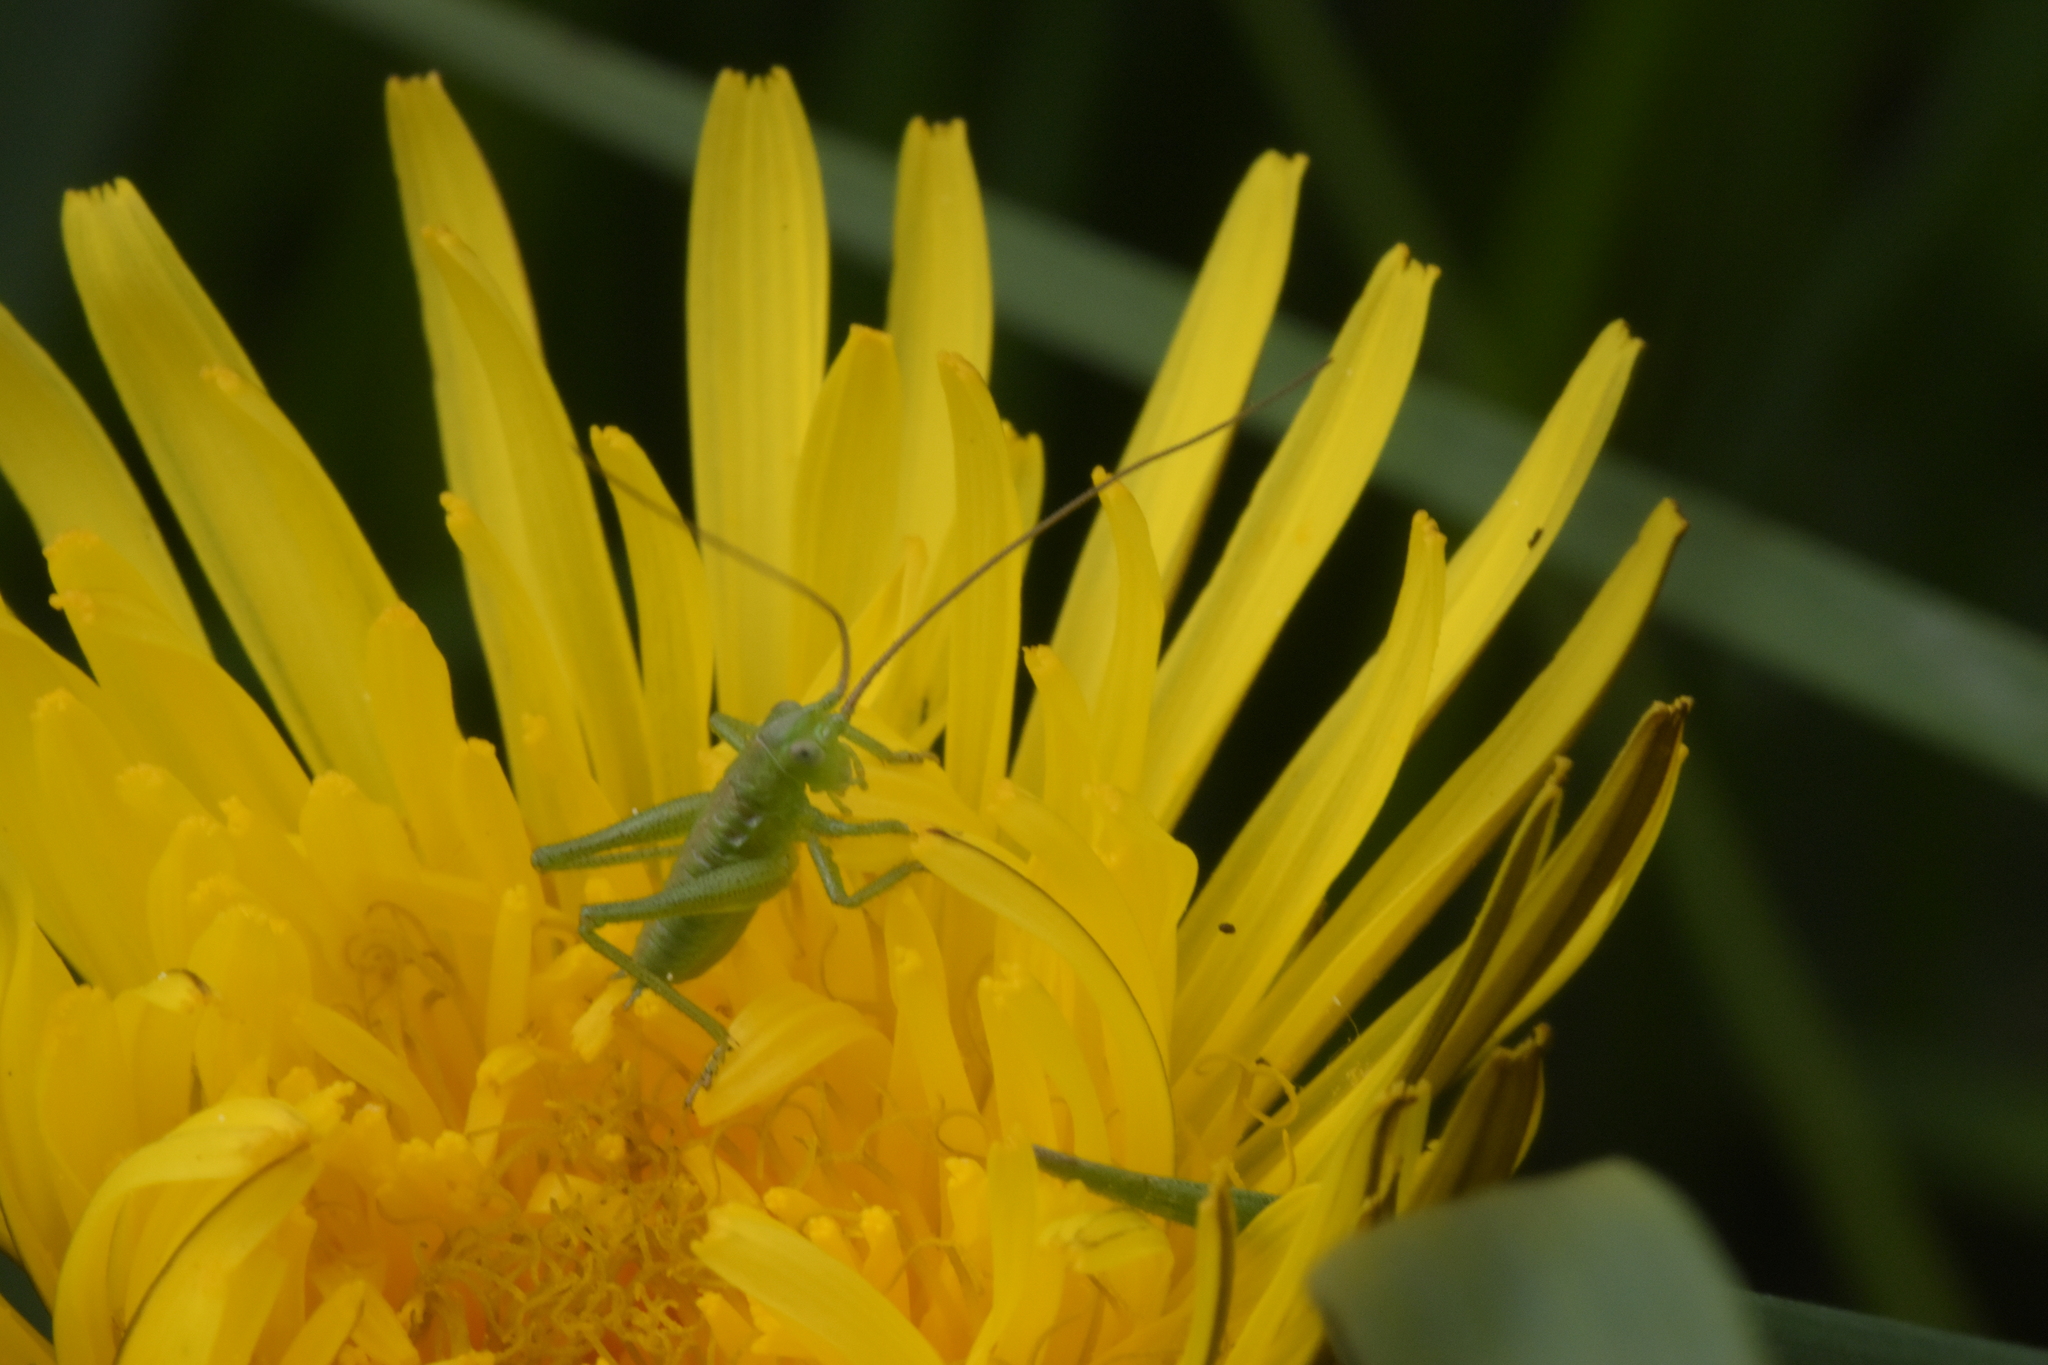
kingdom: Animalia
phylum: Arthropoda
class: Insecta
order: Orthoptera
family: Tettigoniidae
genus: Tettigonia
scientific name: Tettigonia viridissima
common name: Great green bush-cricket
